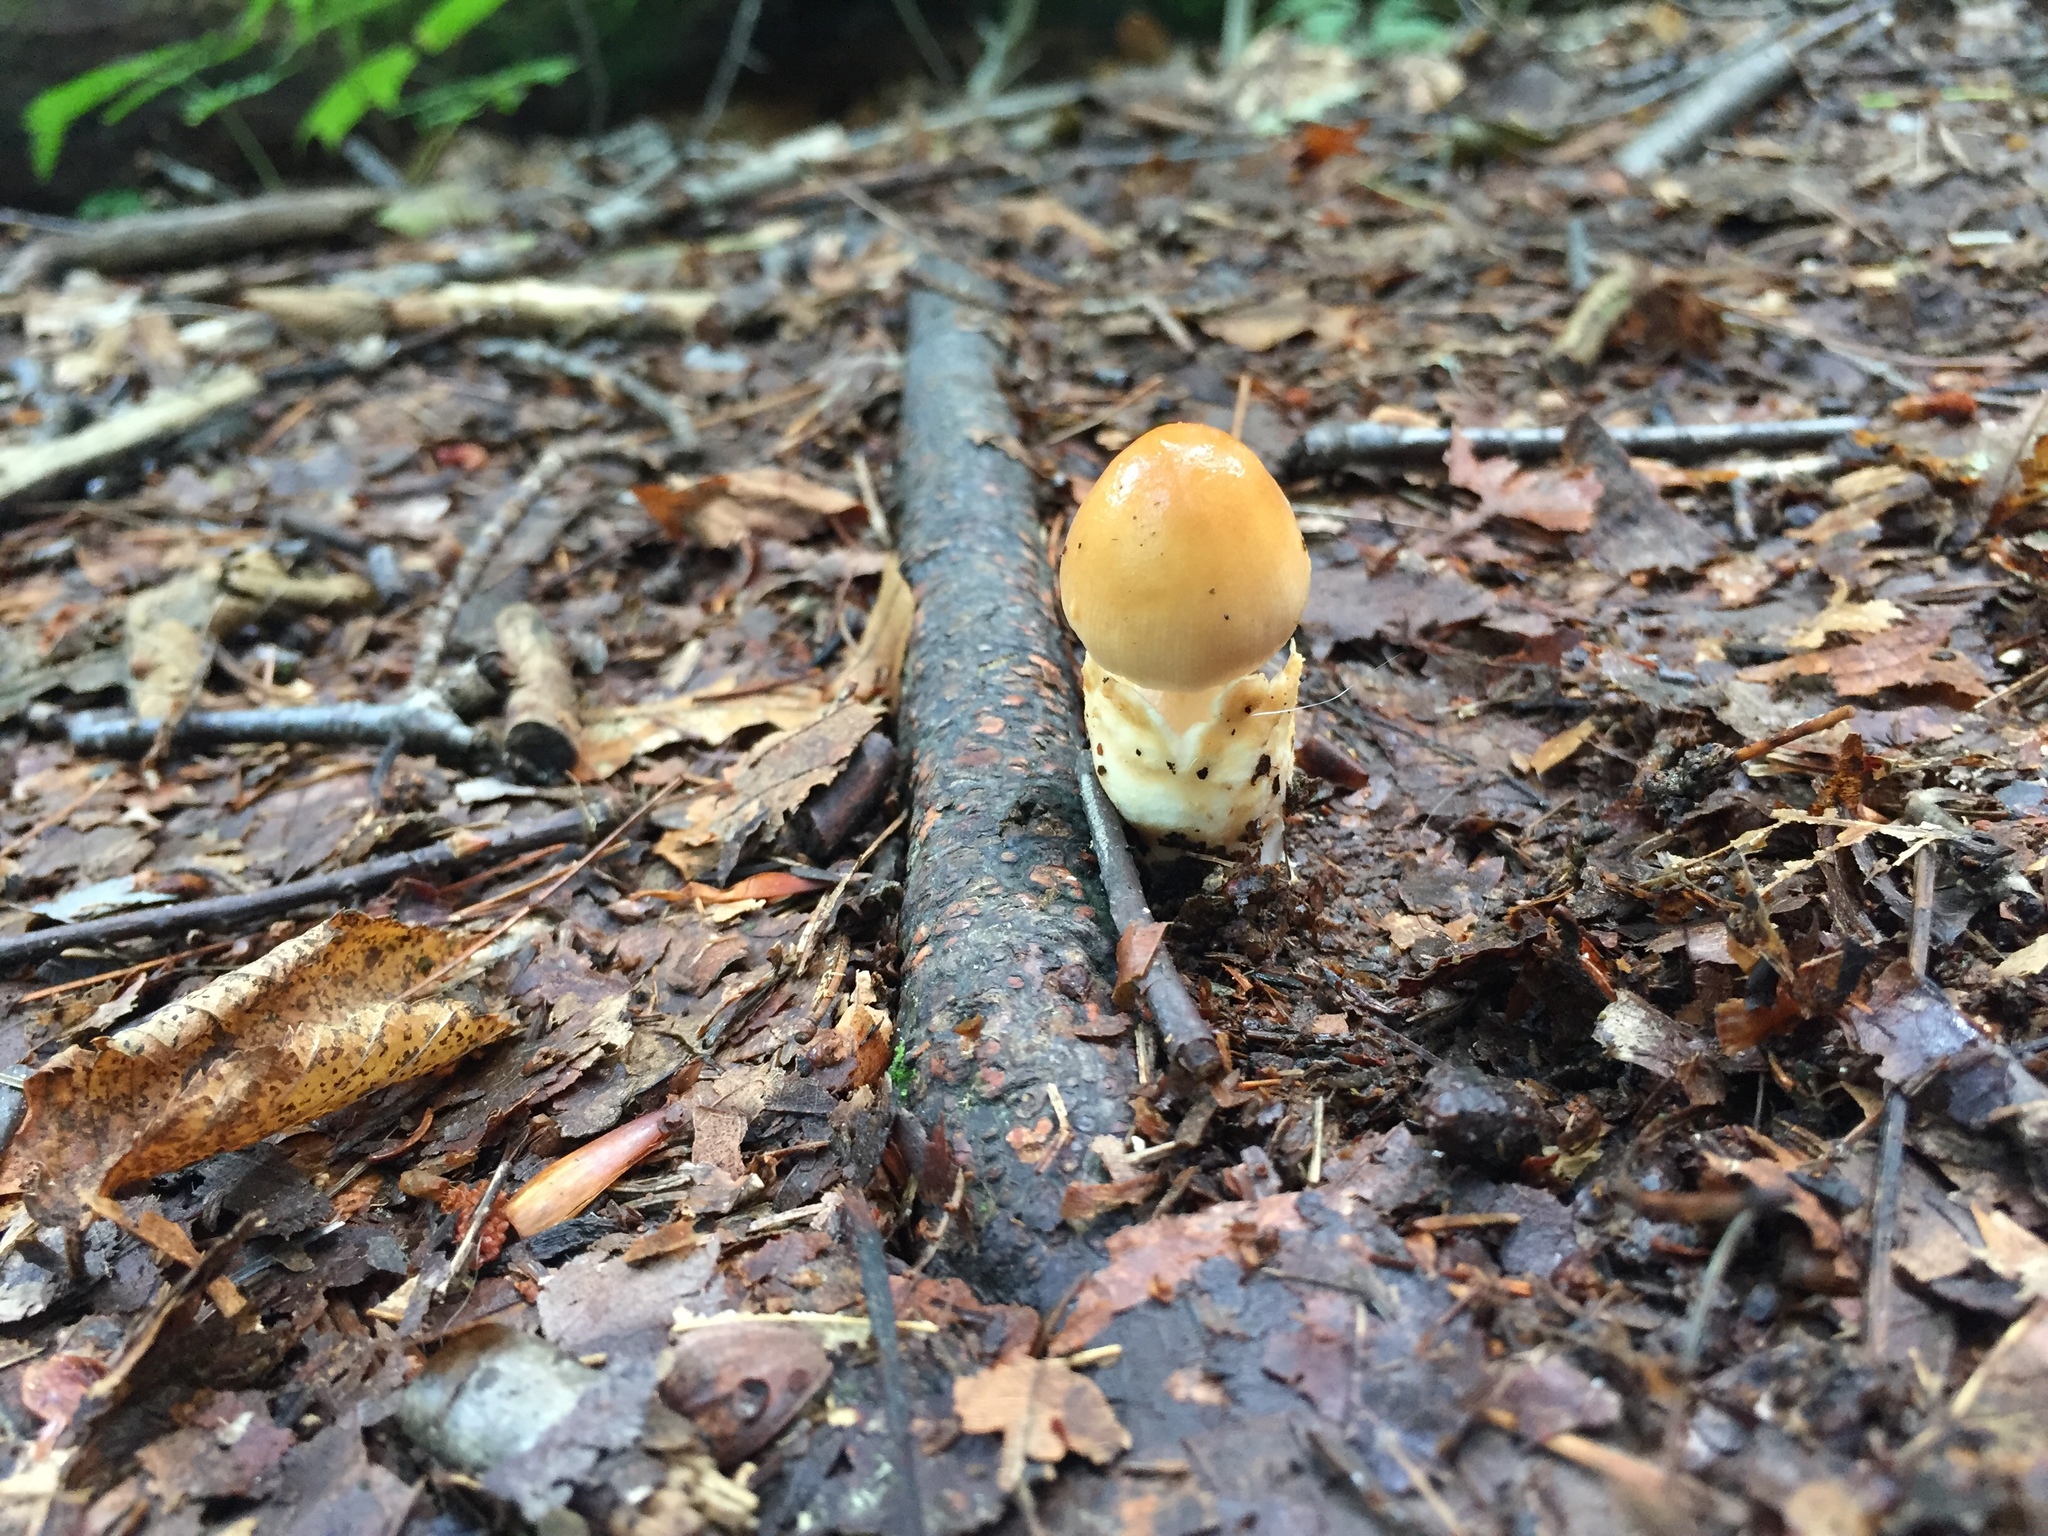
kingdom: Fungi
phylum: Basidiomycota
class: Agaricomycetes
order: Agaricales
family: Amanitaceae
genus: Amanita
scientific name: Amanita fulva
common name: Tawny grisette
